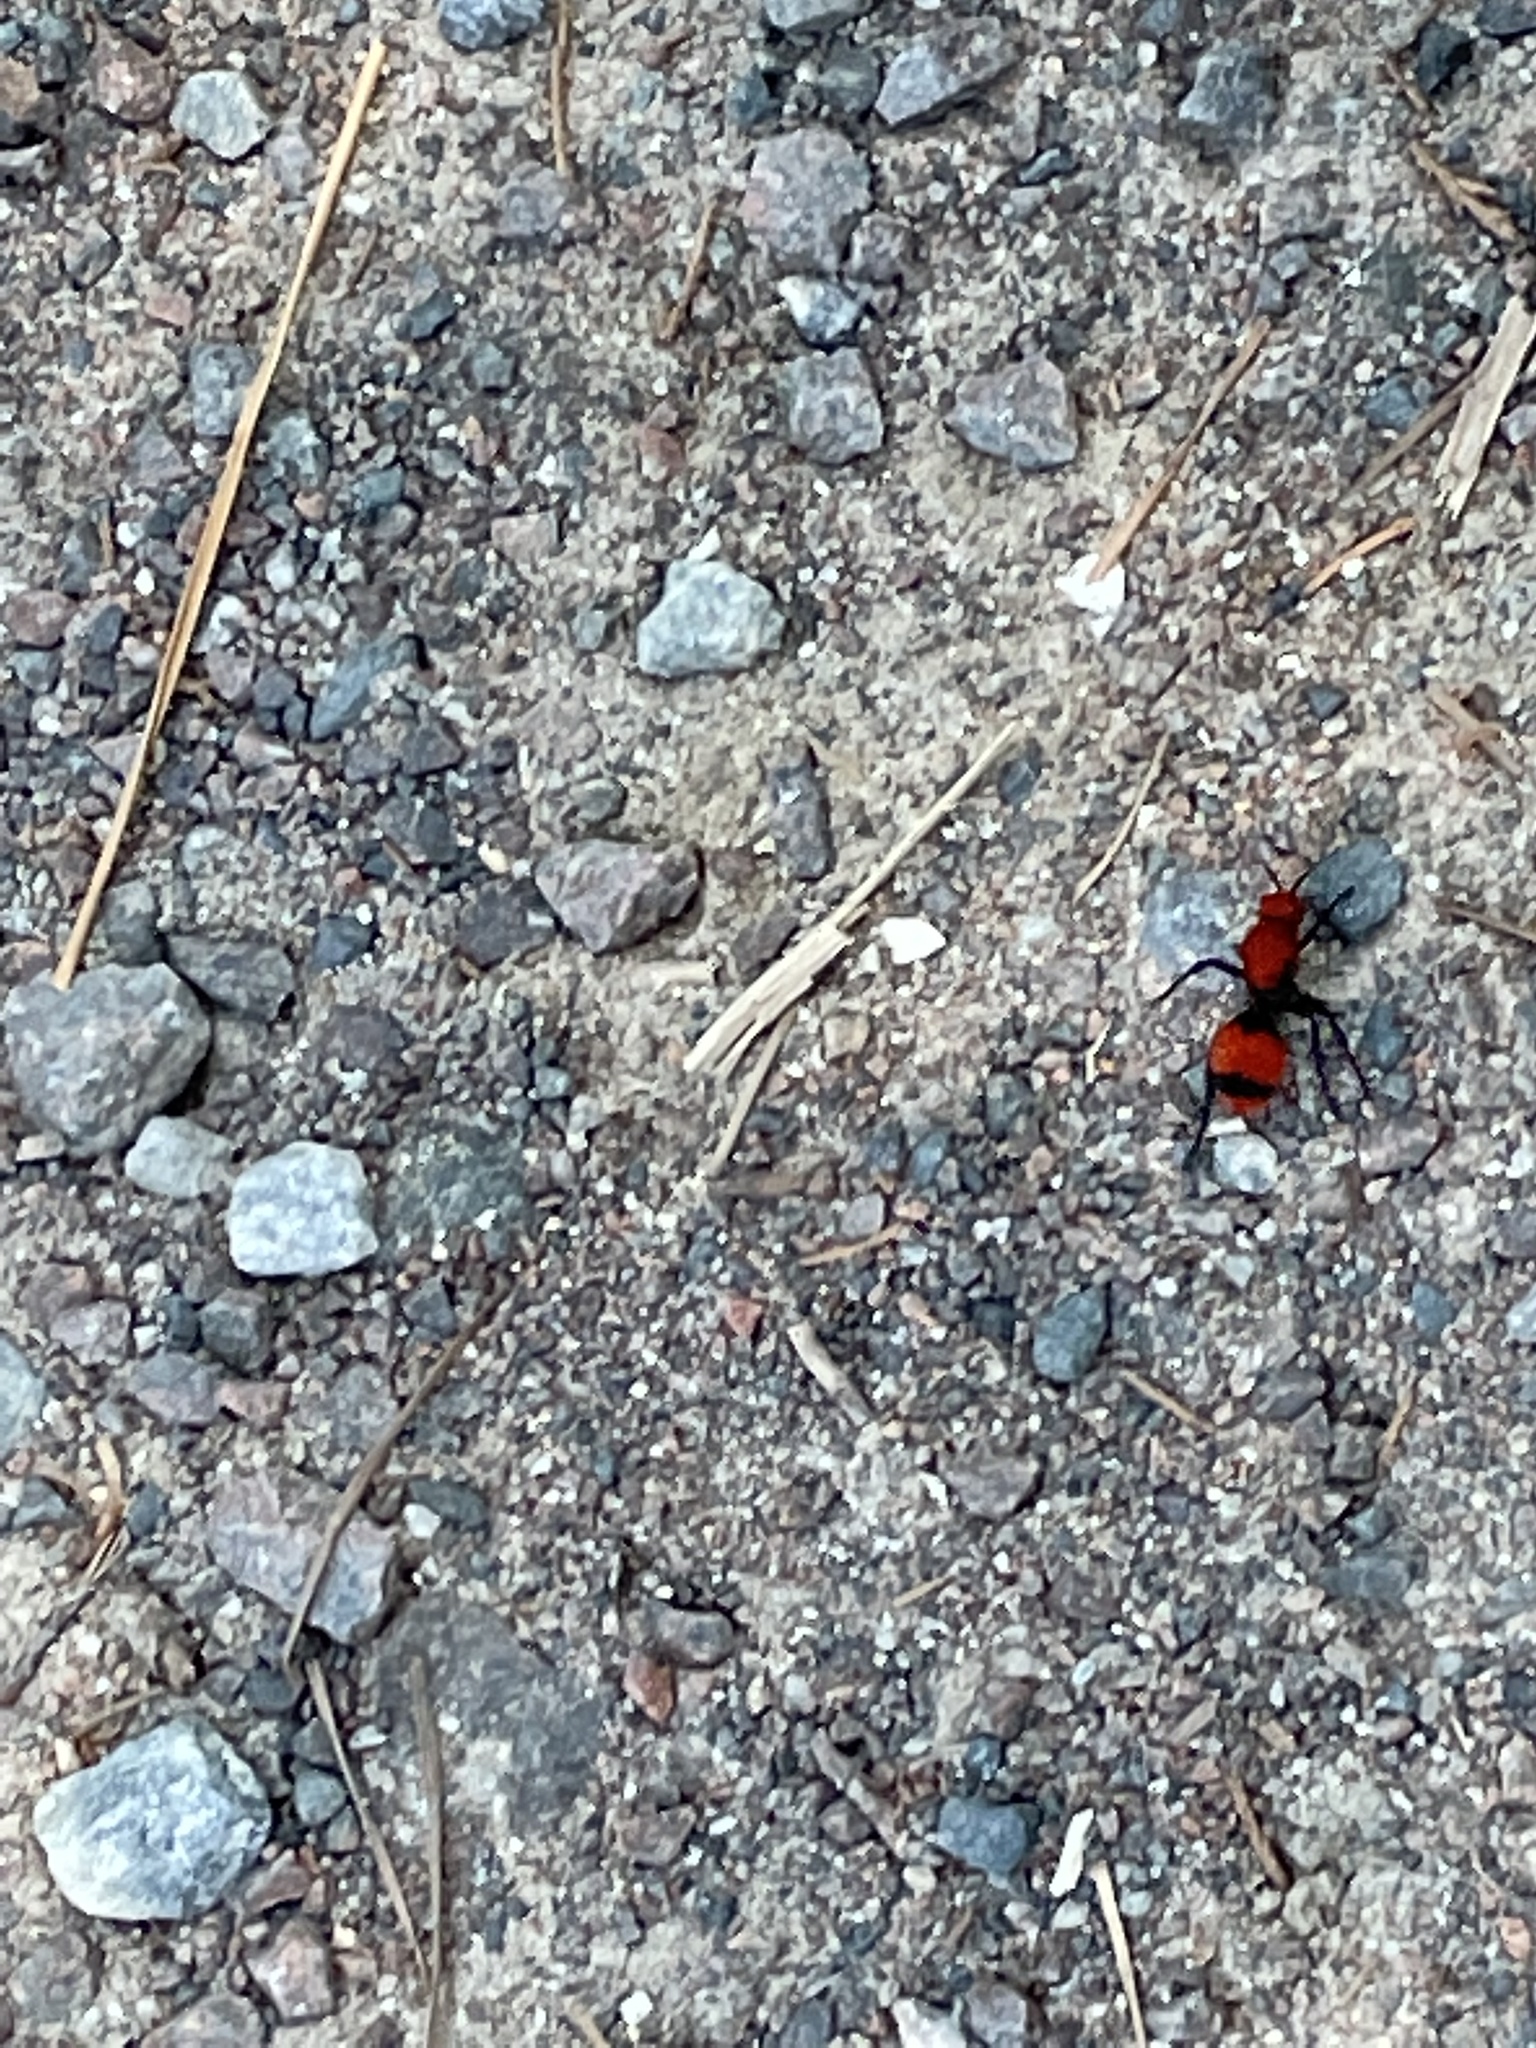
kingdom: Animalia
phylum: Arthropoda
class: Insecta
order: Hymenoptera
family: Mutillidae
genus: Dasymutilla
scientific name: Dasymutilla occidentalis
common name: Common eastern velvet ant
